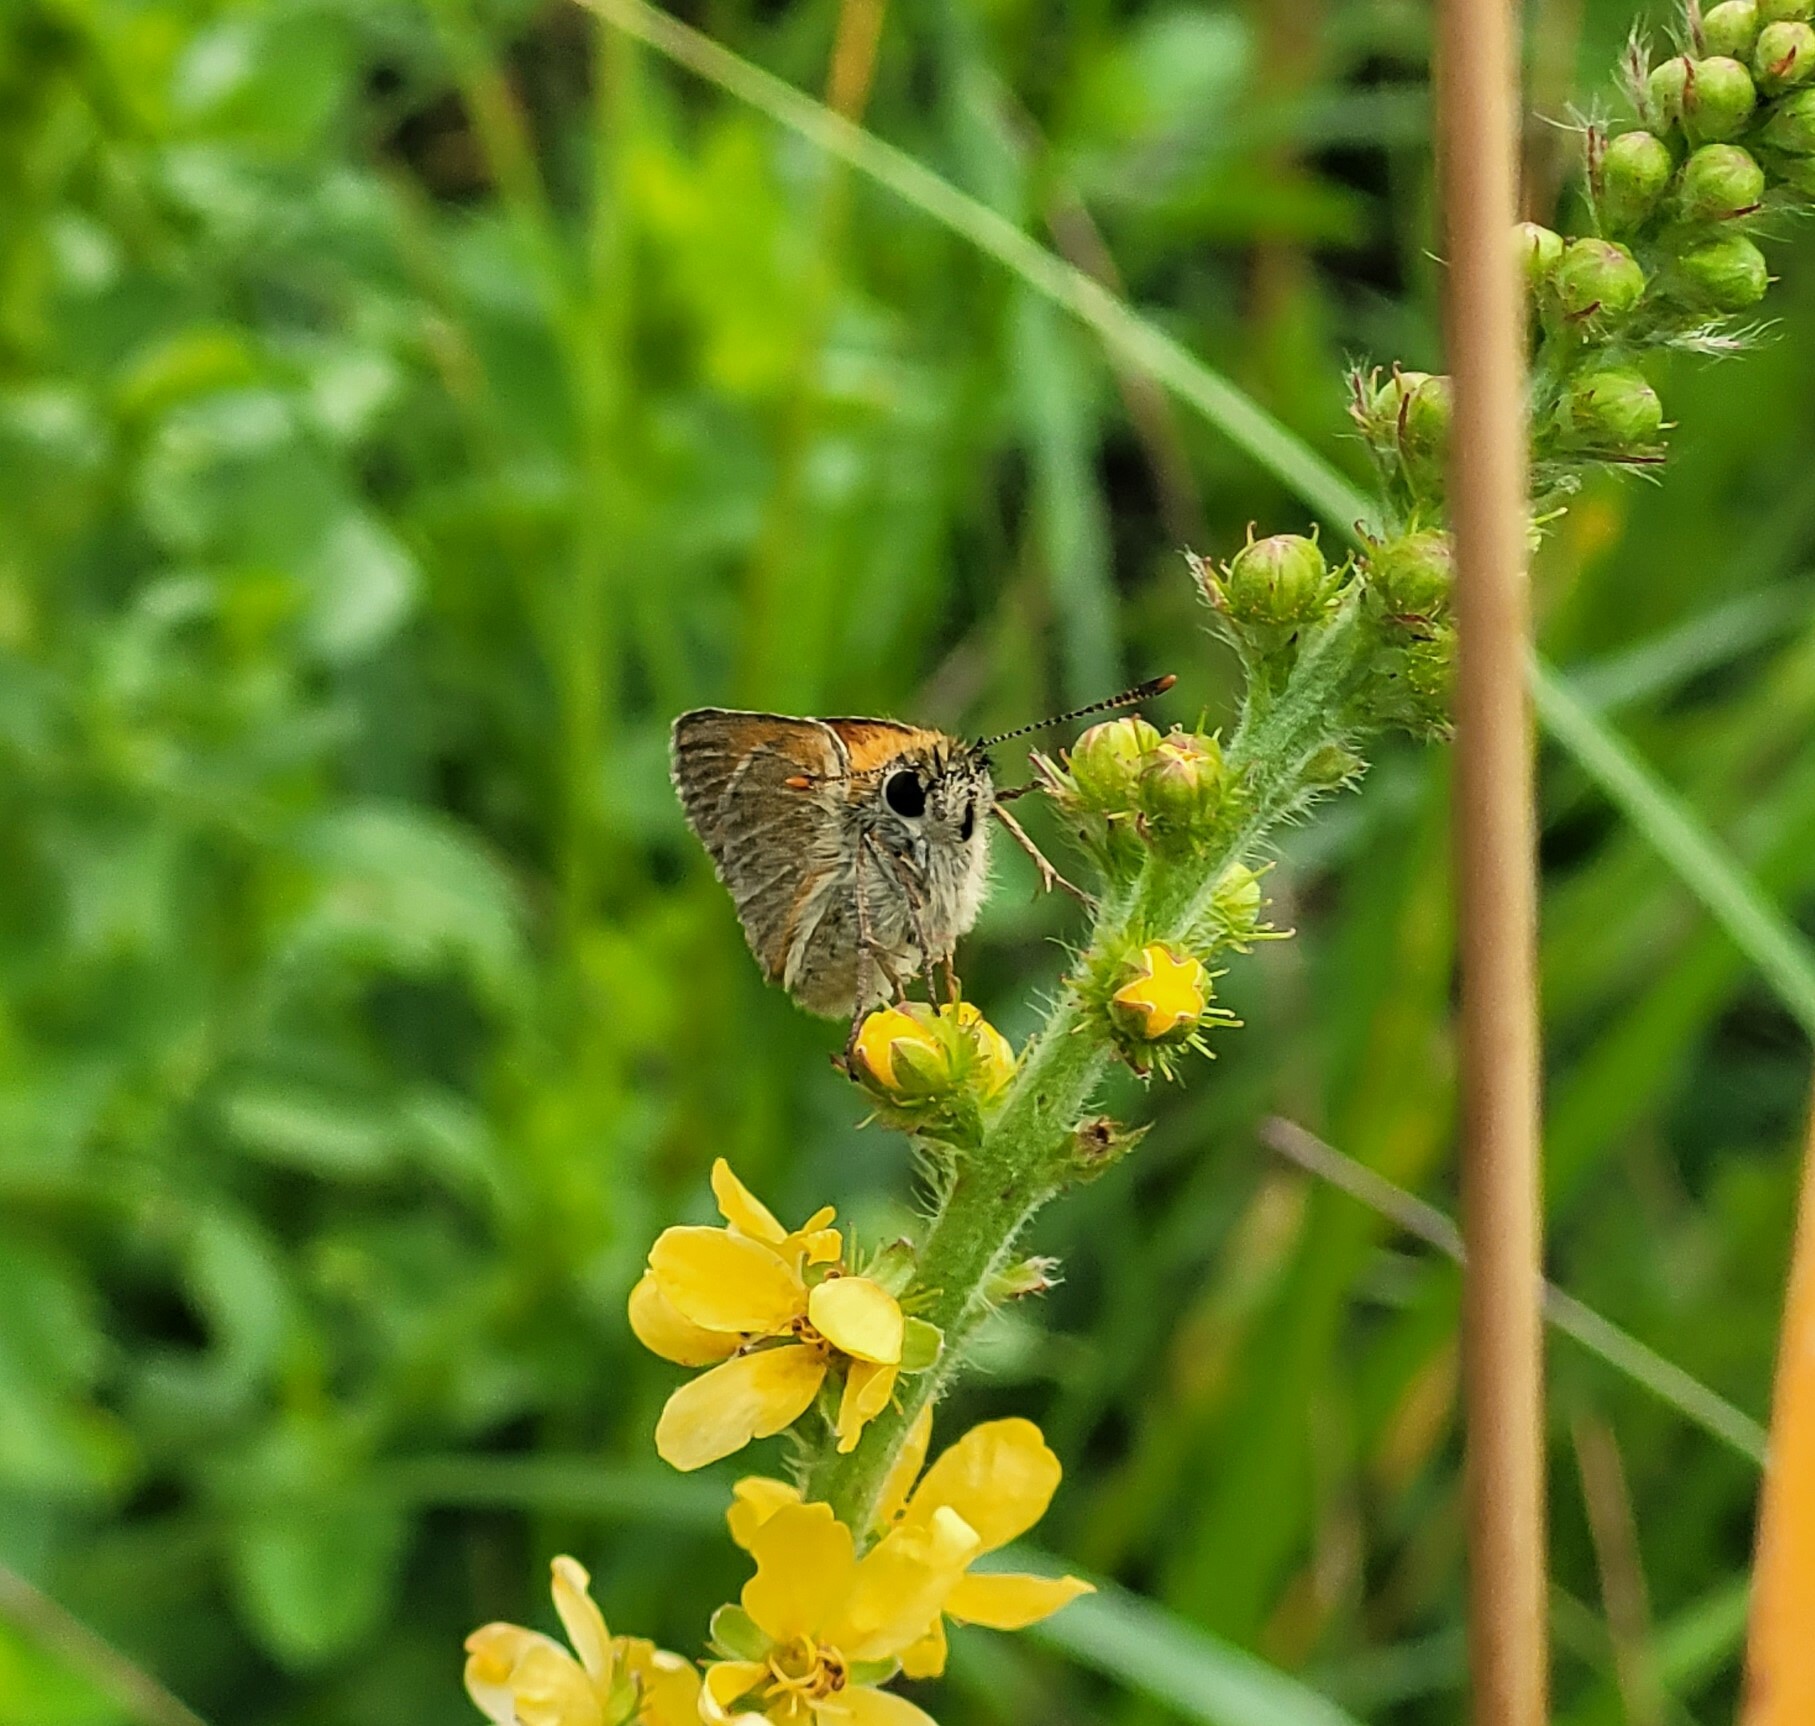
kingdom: Animalia
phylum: Arthropoda
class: Insecta
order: Lepidoptera
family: Hesperiidae
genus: Thymelicus
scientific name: Thymelicus sylvestris
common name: Small skipper
